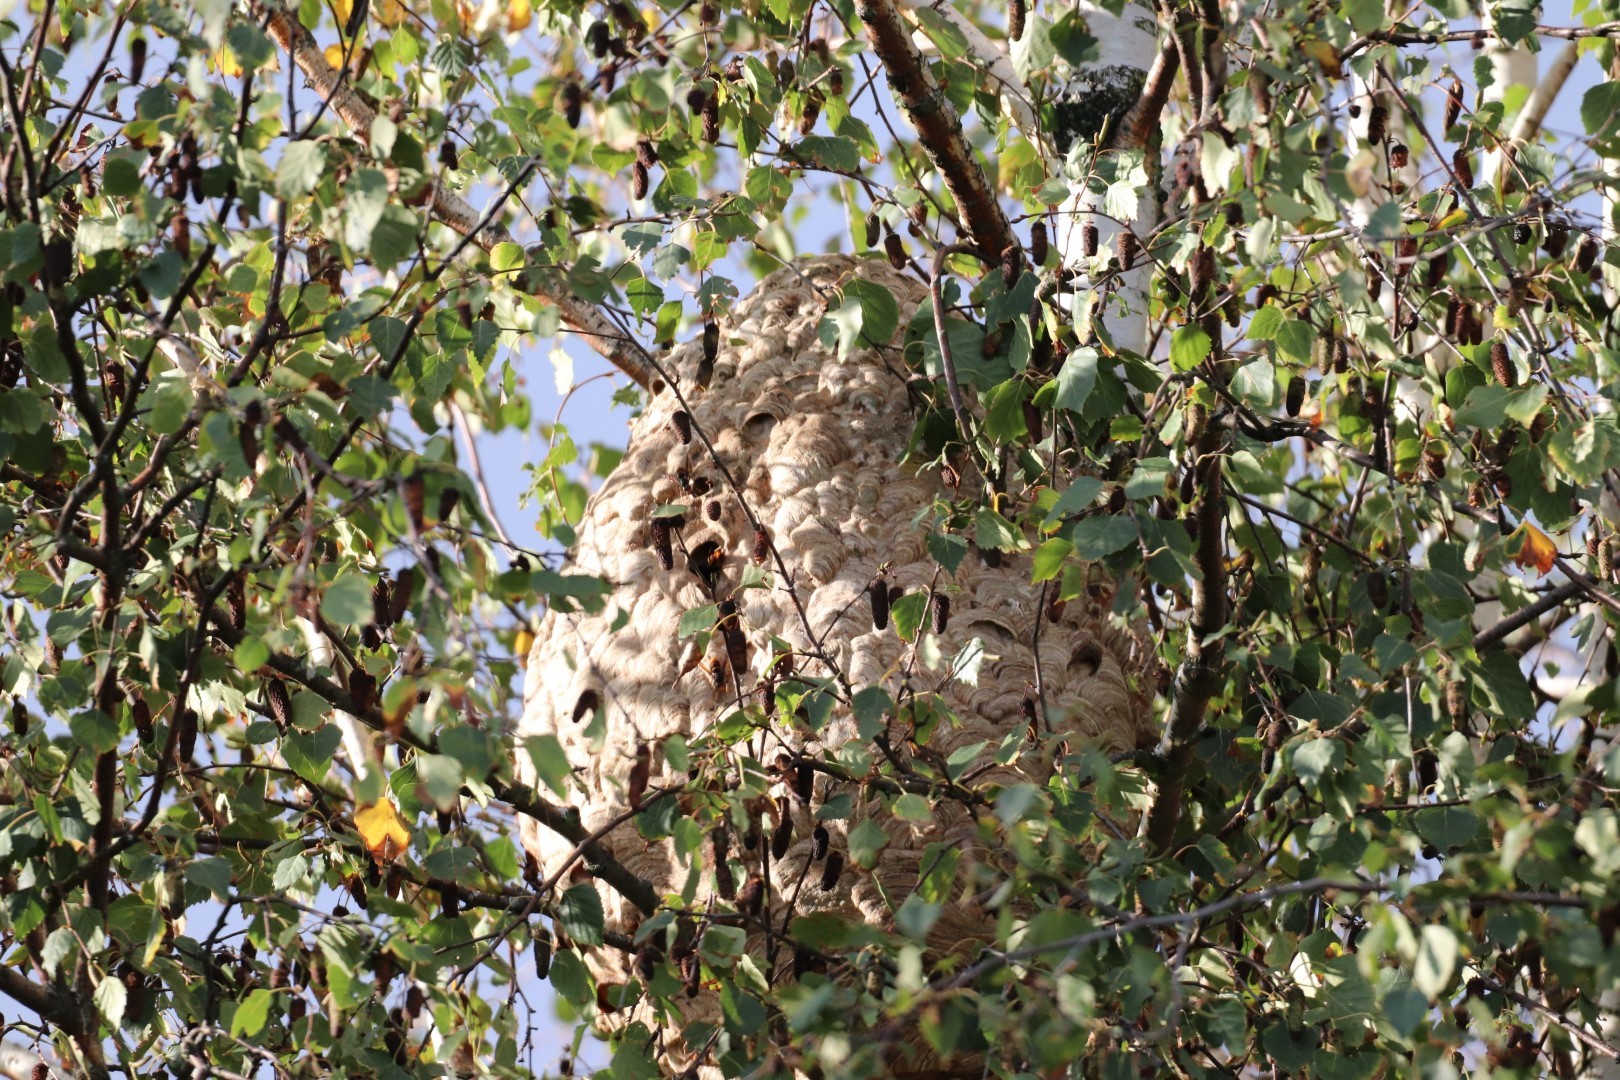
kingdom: Animalia
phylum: Arthropoda
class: Insecta
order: Hymenoptera
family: Vespidae
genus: Vespa
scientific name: Vespa velutina
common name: Asian hornet
